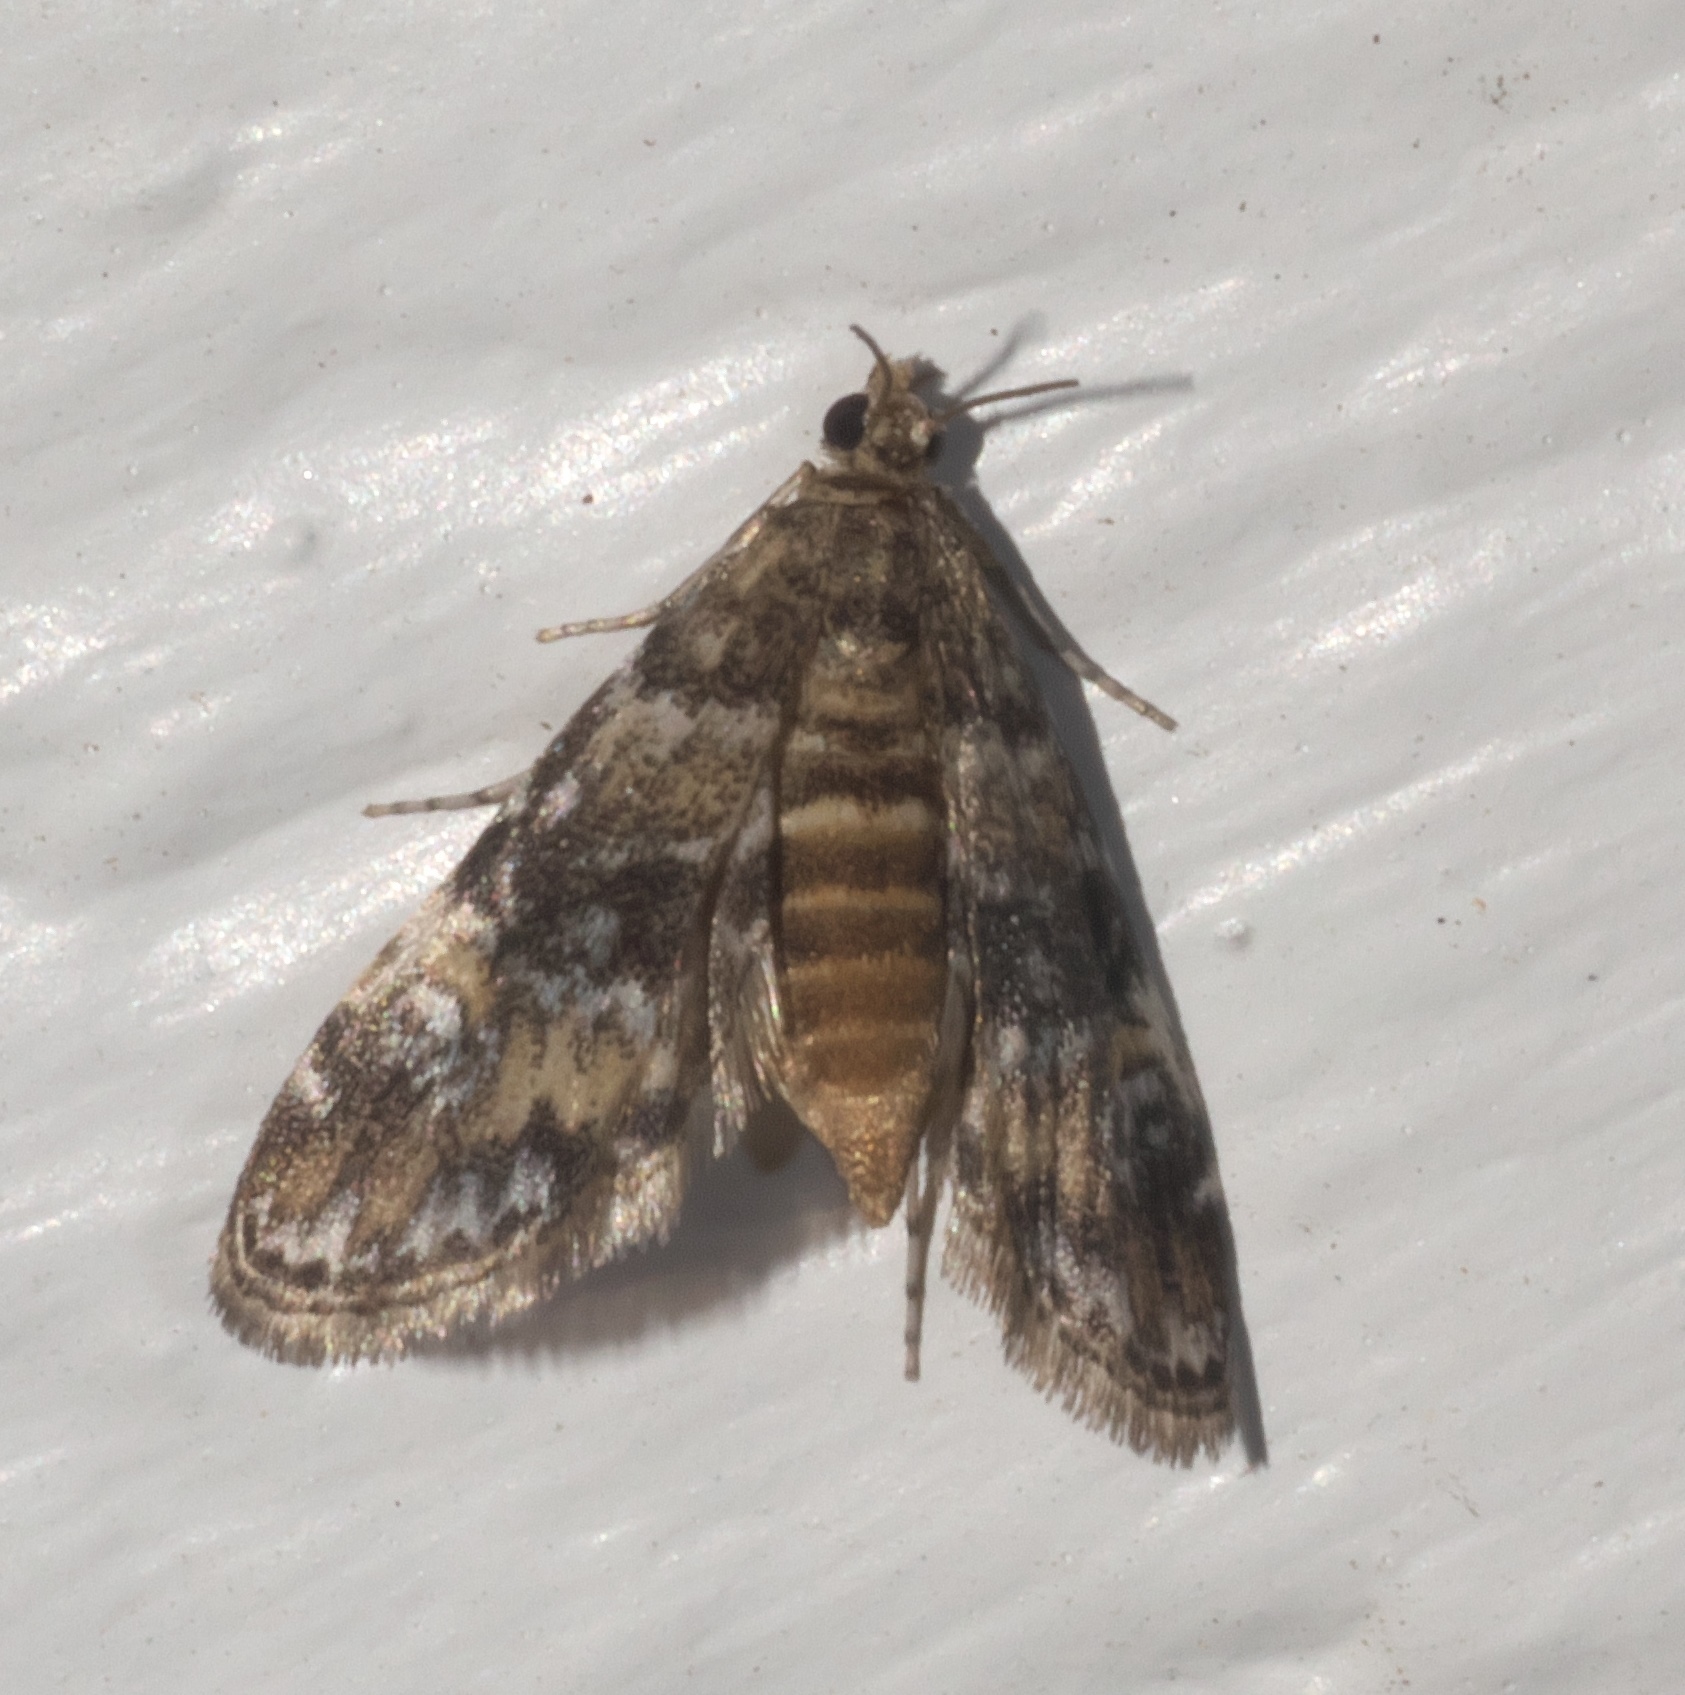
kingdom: Animalia
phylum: Arthropoda
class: Insecta
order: Lepidoptera
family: Crambidae
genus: Elophila
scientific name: Elophila obliteralis
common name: Waterlily leafcutter moth
